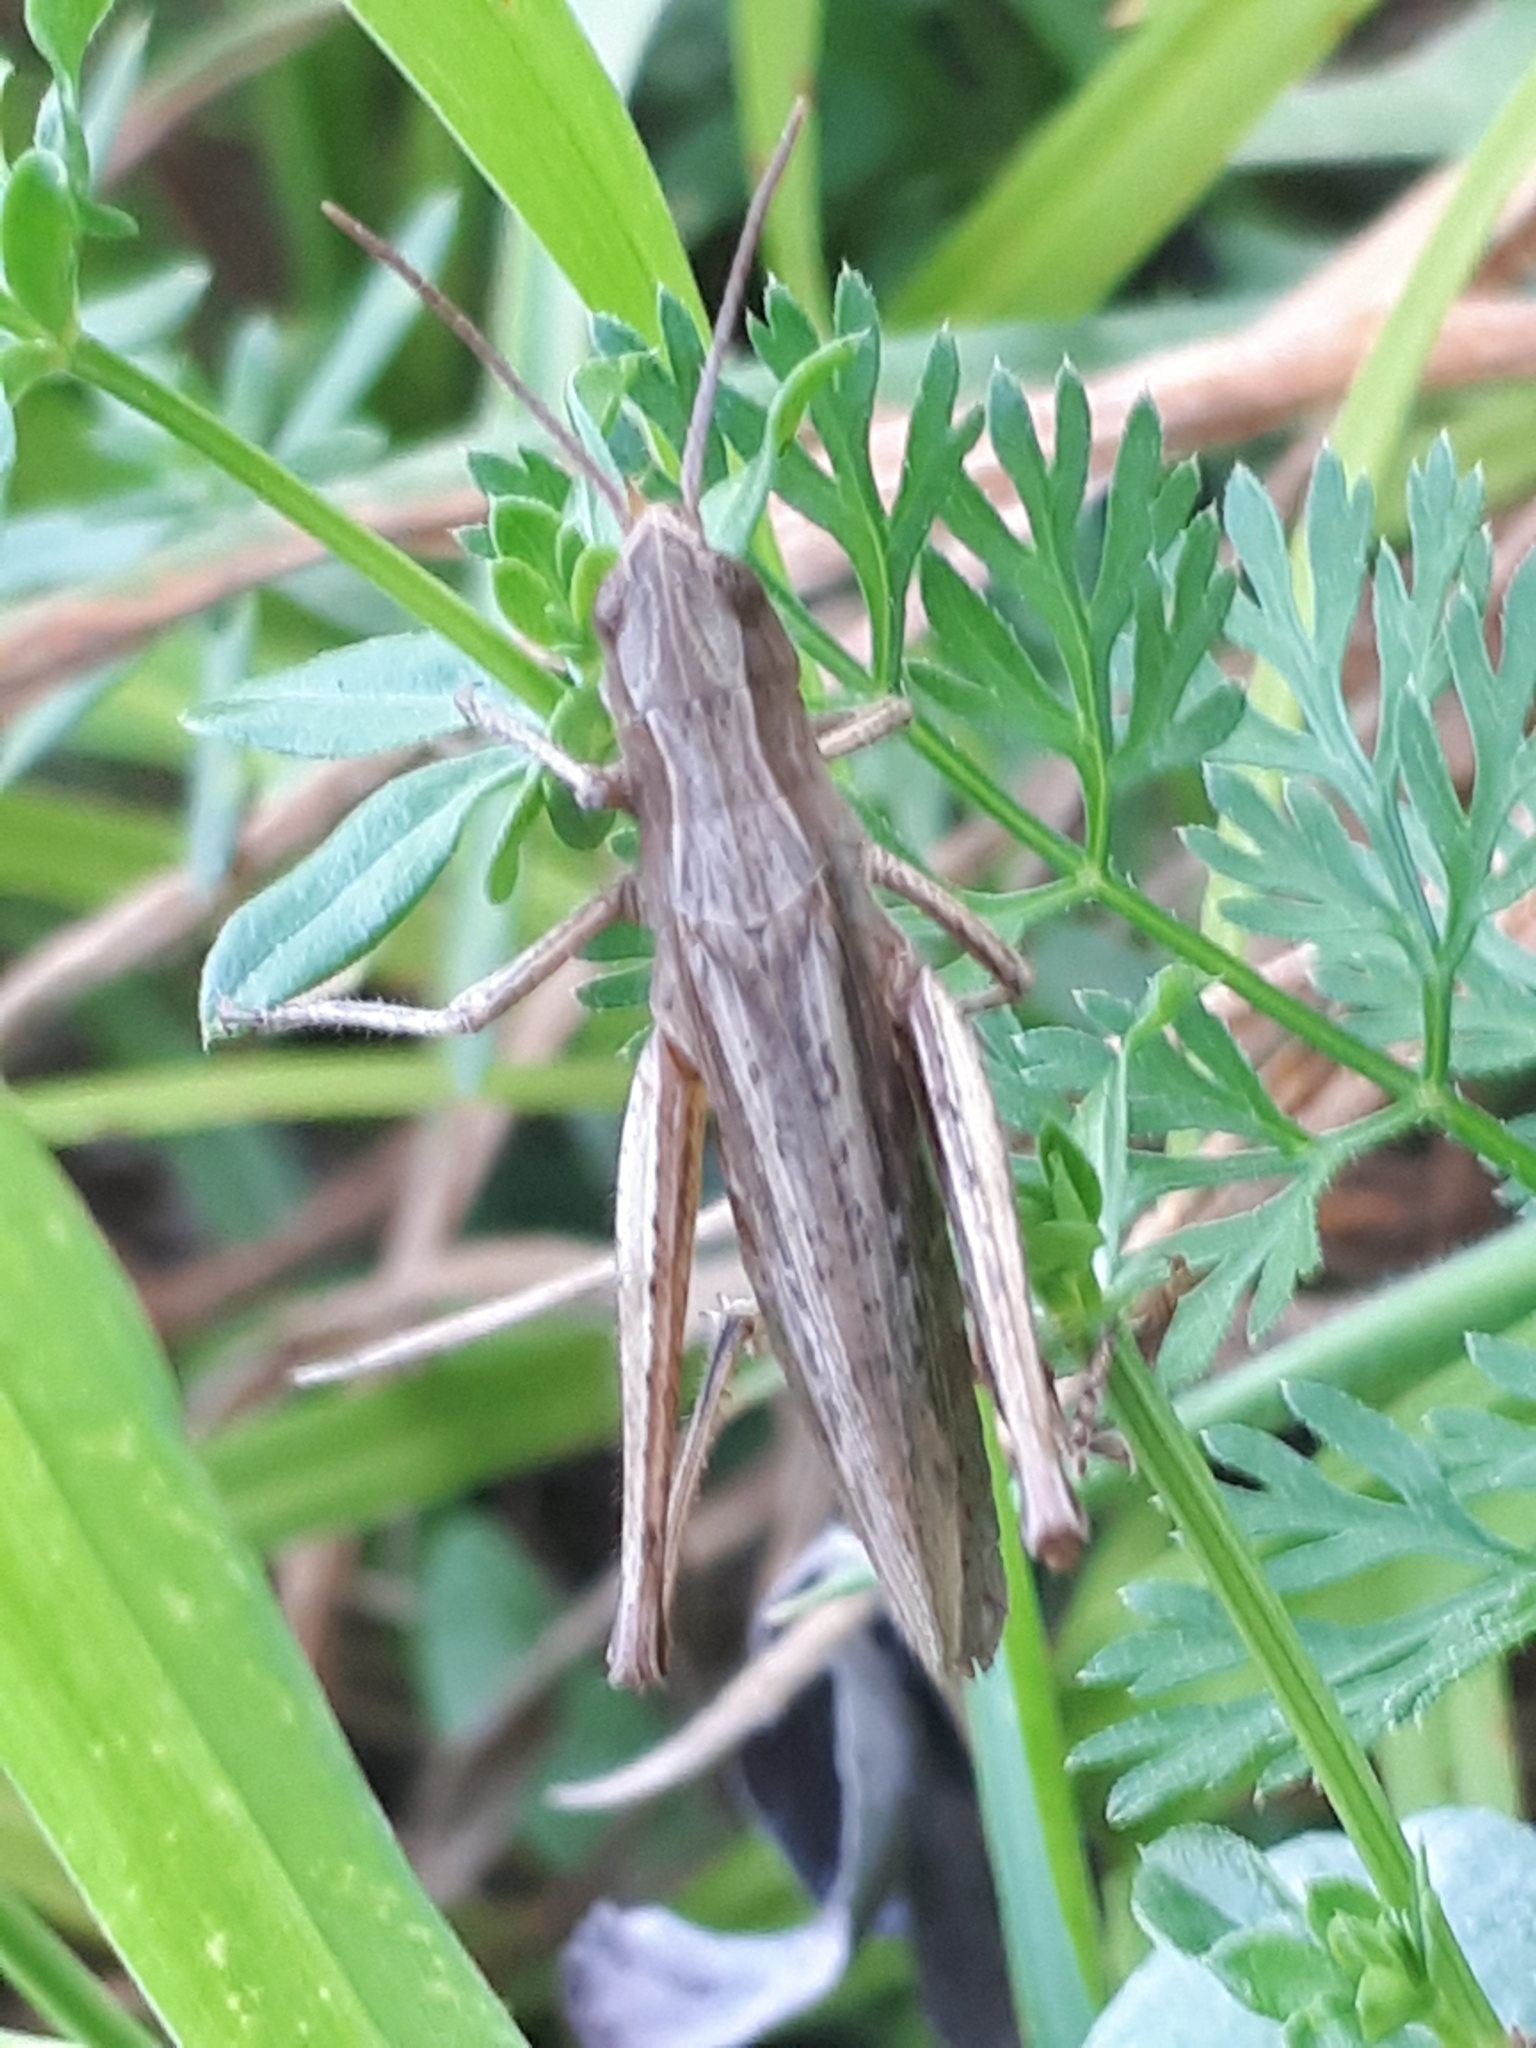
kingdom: Animalia
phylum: Arthropoda
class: Insecta
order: Orthoptera
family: Acrididae
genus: Chorthippus
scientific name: Chorthippus dorsatus
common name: Steppe grasshopper
